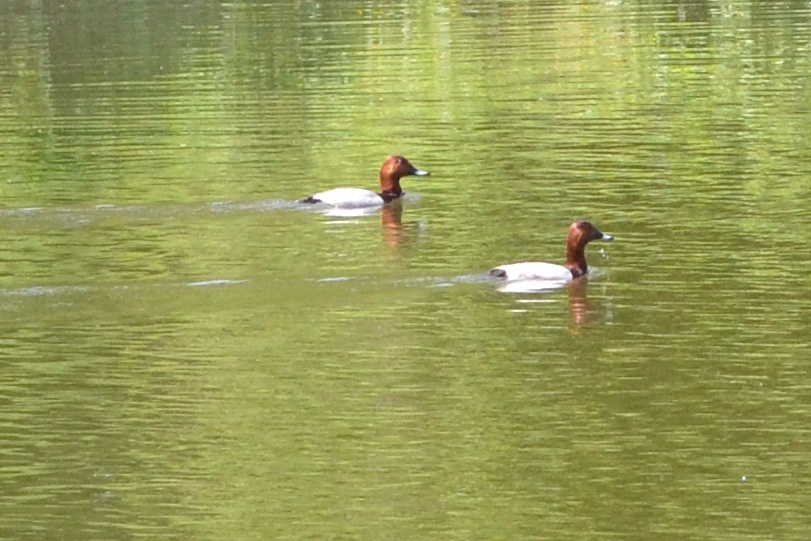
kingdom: Animalia
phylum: Chordata
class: Aves
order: Anseriformes
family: Anatidae
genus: Aythya
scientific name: Aythya ferina
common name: Common pochard
